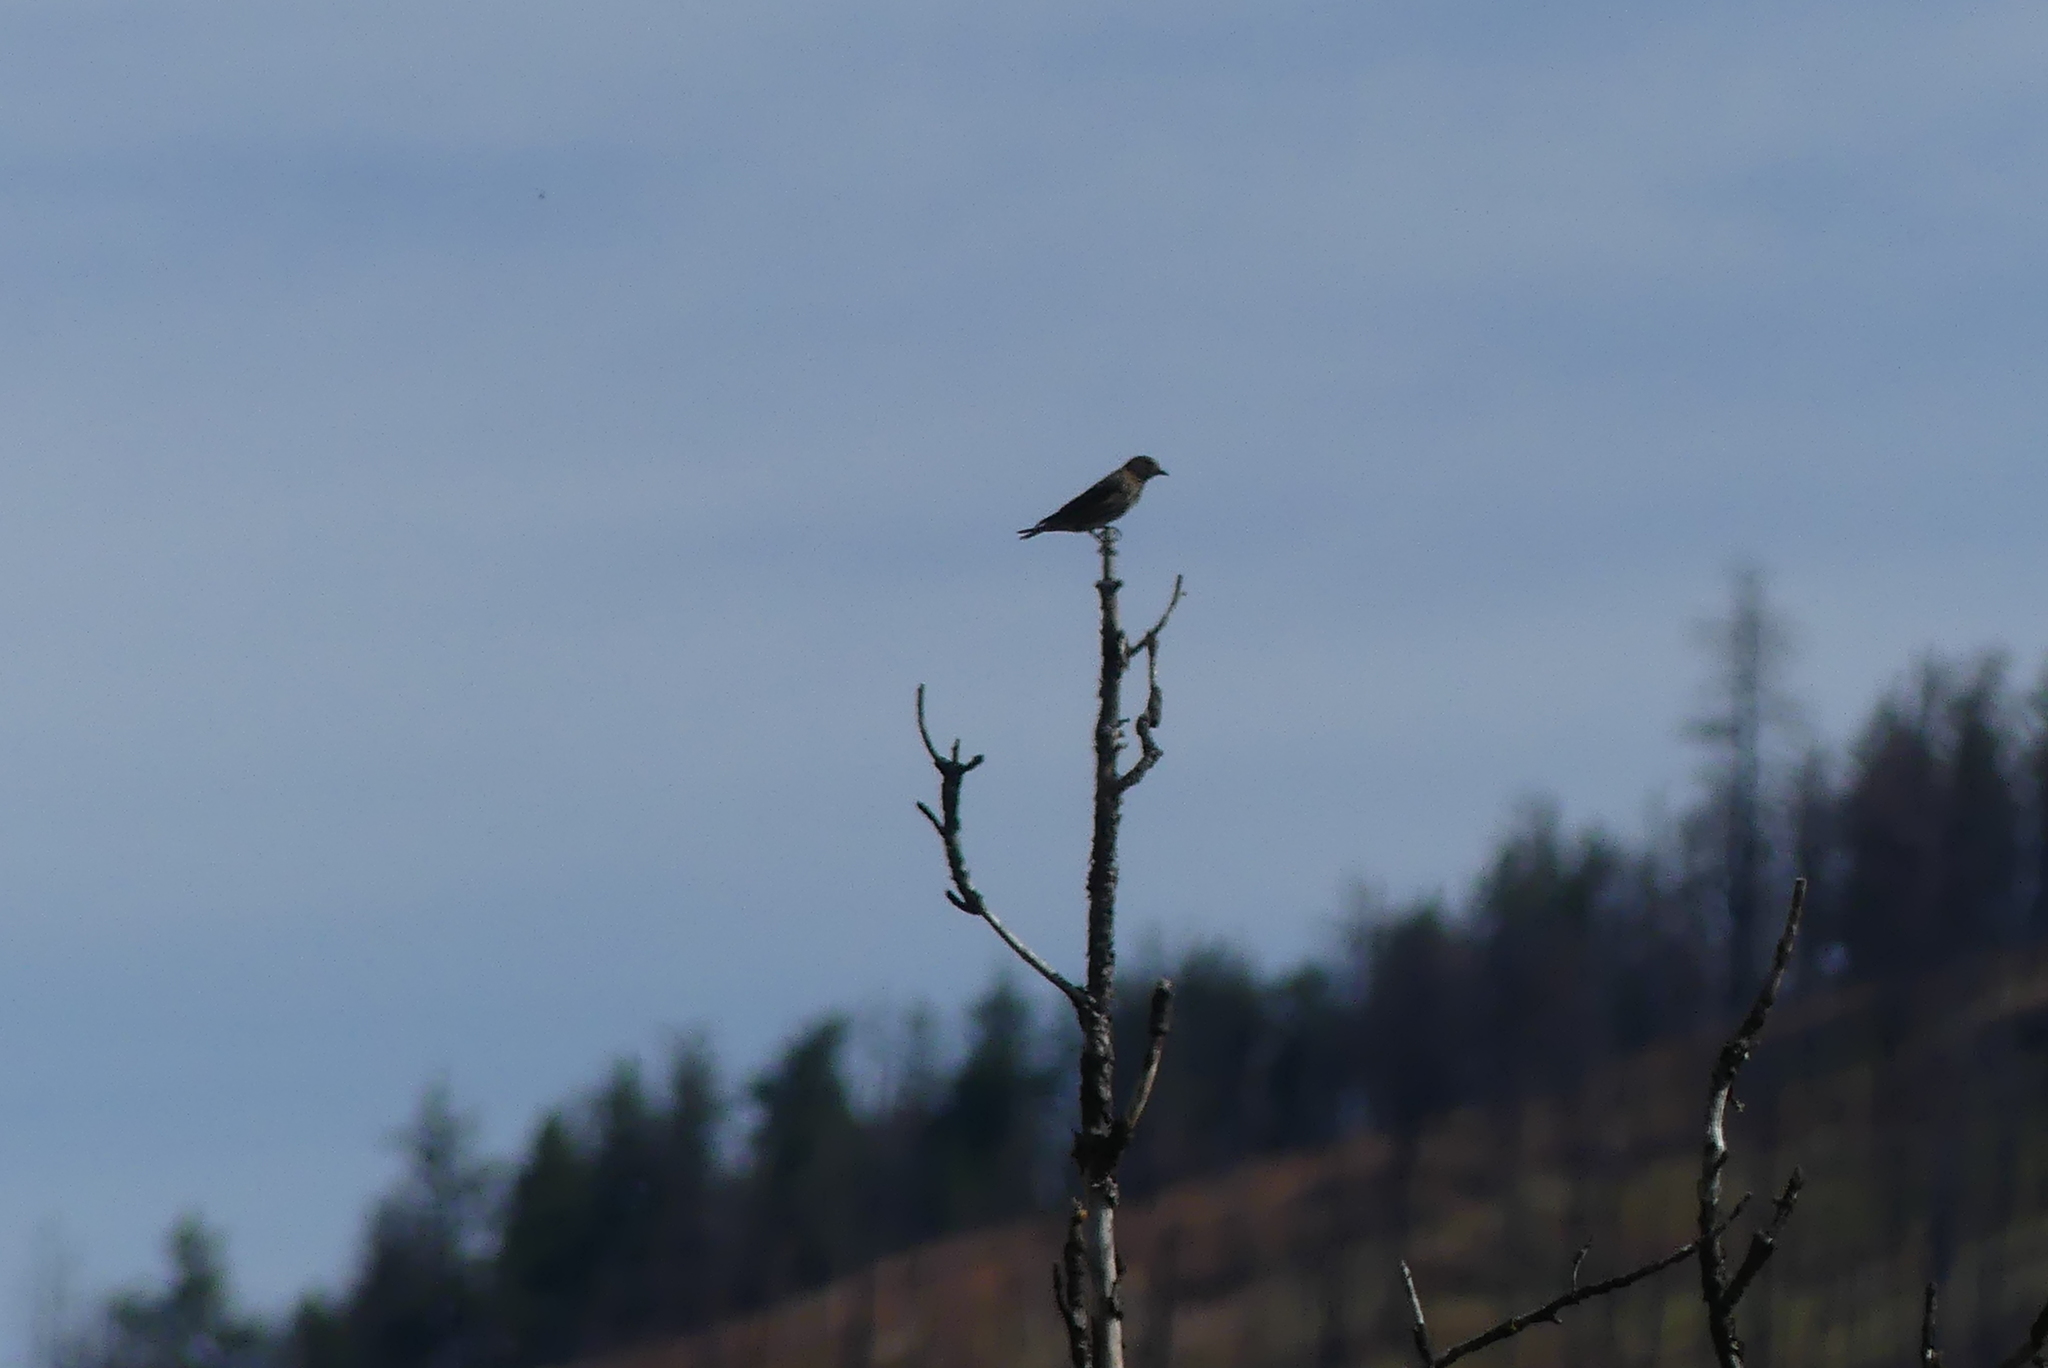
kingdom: Animalia
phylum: Chordata
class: Aves
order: Passeriformes
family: Fringillidae
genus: Spinus
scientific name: Spinus pinus
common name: Pine siskin
